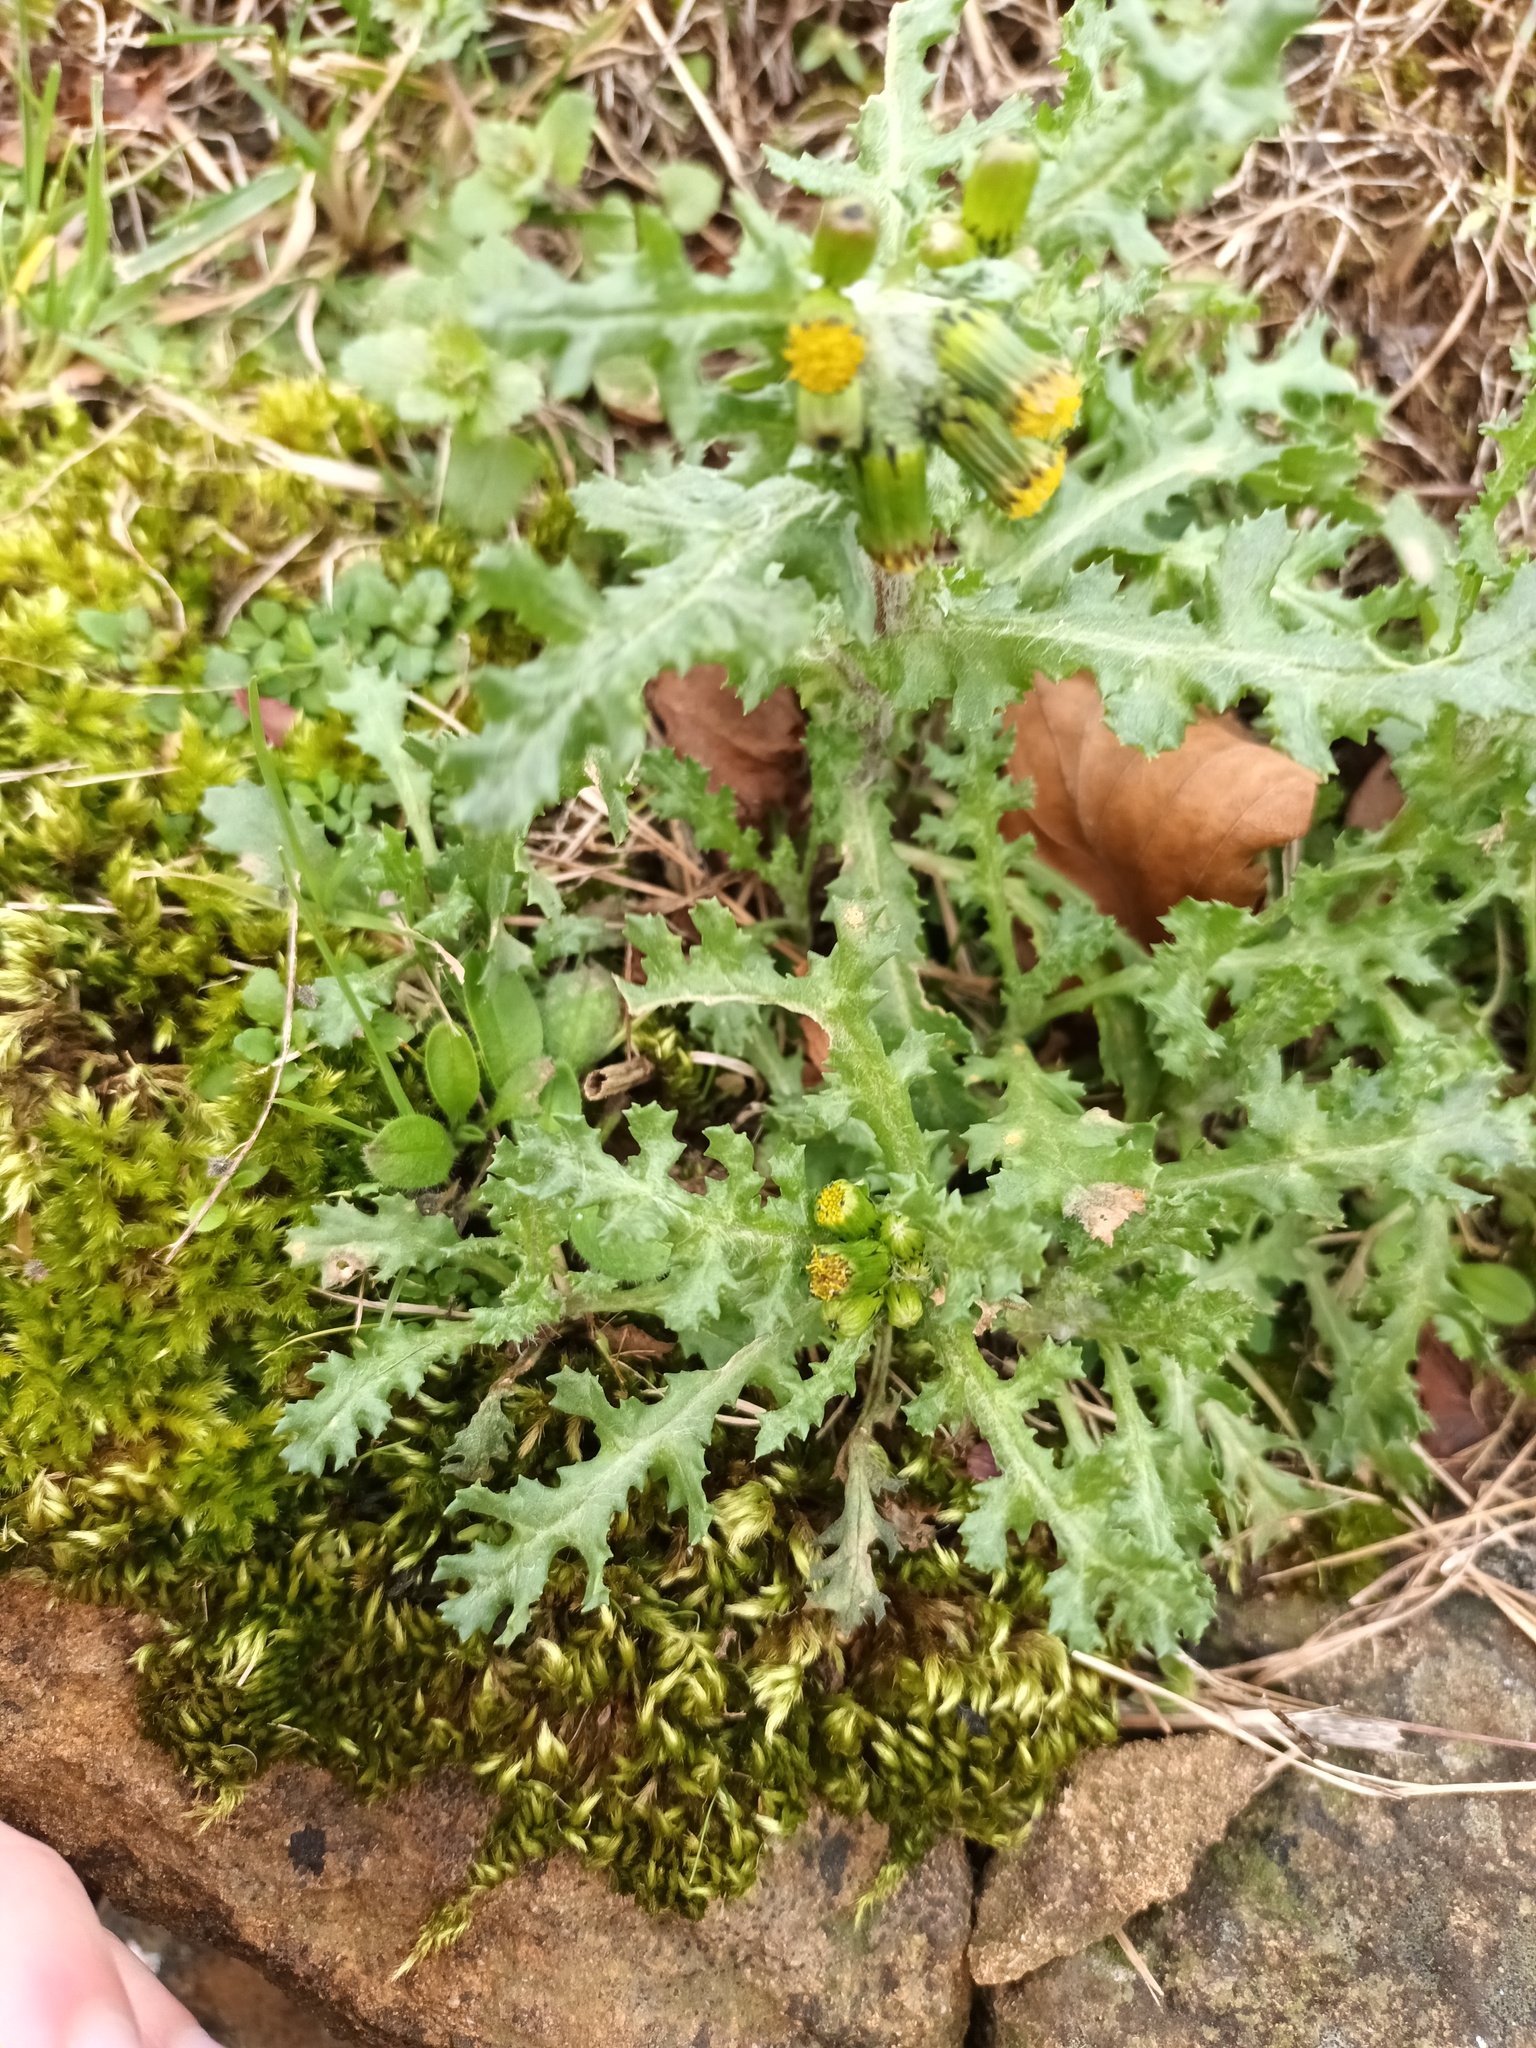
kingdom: Fungi
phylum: Basidiomycota
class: Pucciniomycetes
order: Pucciniales
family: Pucciniaceae
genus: Puccinia
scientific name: Puccinia lagenophorae
